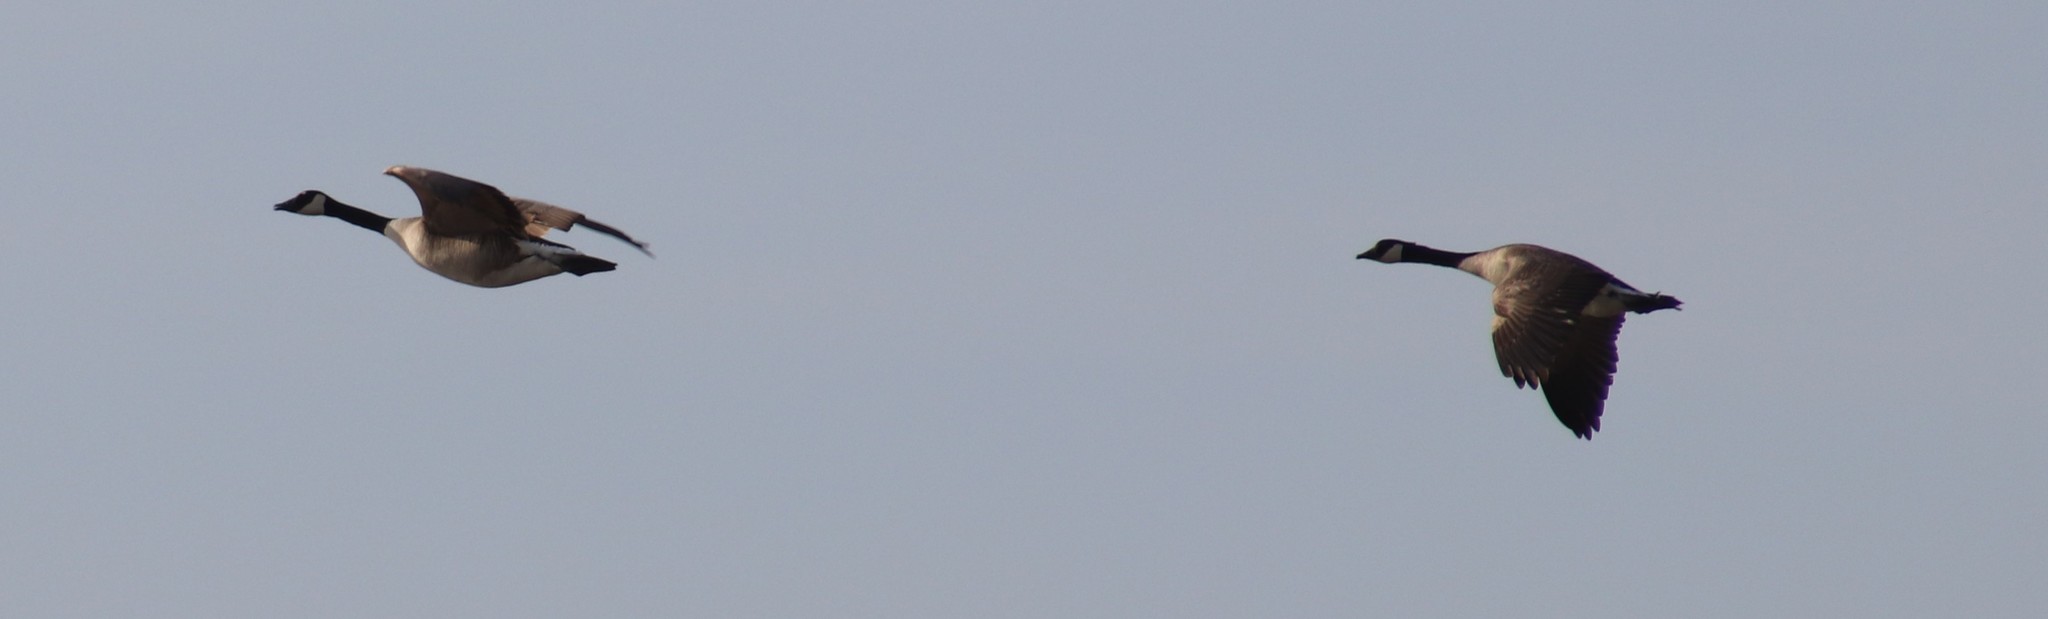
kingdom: Animalia
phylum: Chordata
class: Aves
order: Anseriformes
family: Anatidae
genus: Branta
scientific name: Branta canadensis
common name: Canada goose
